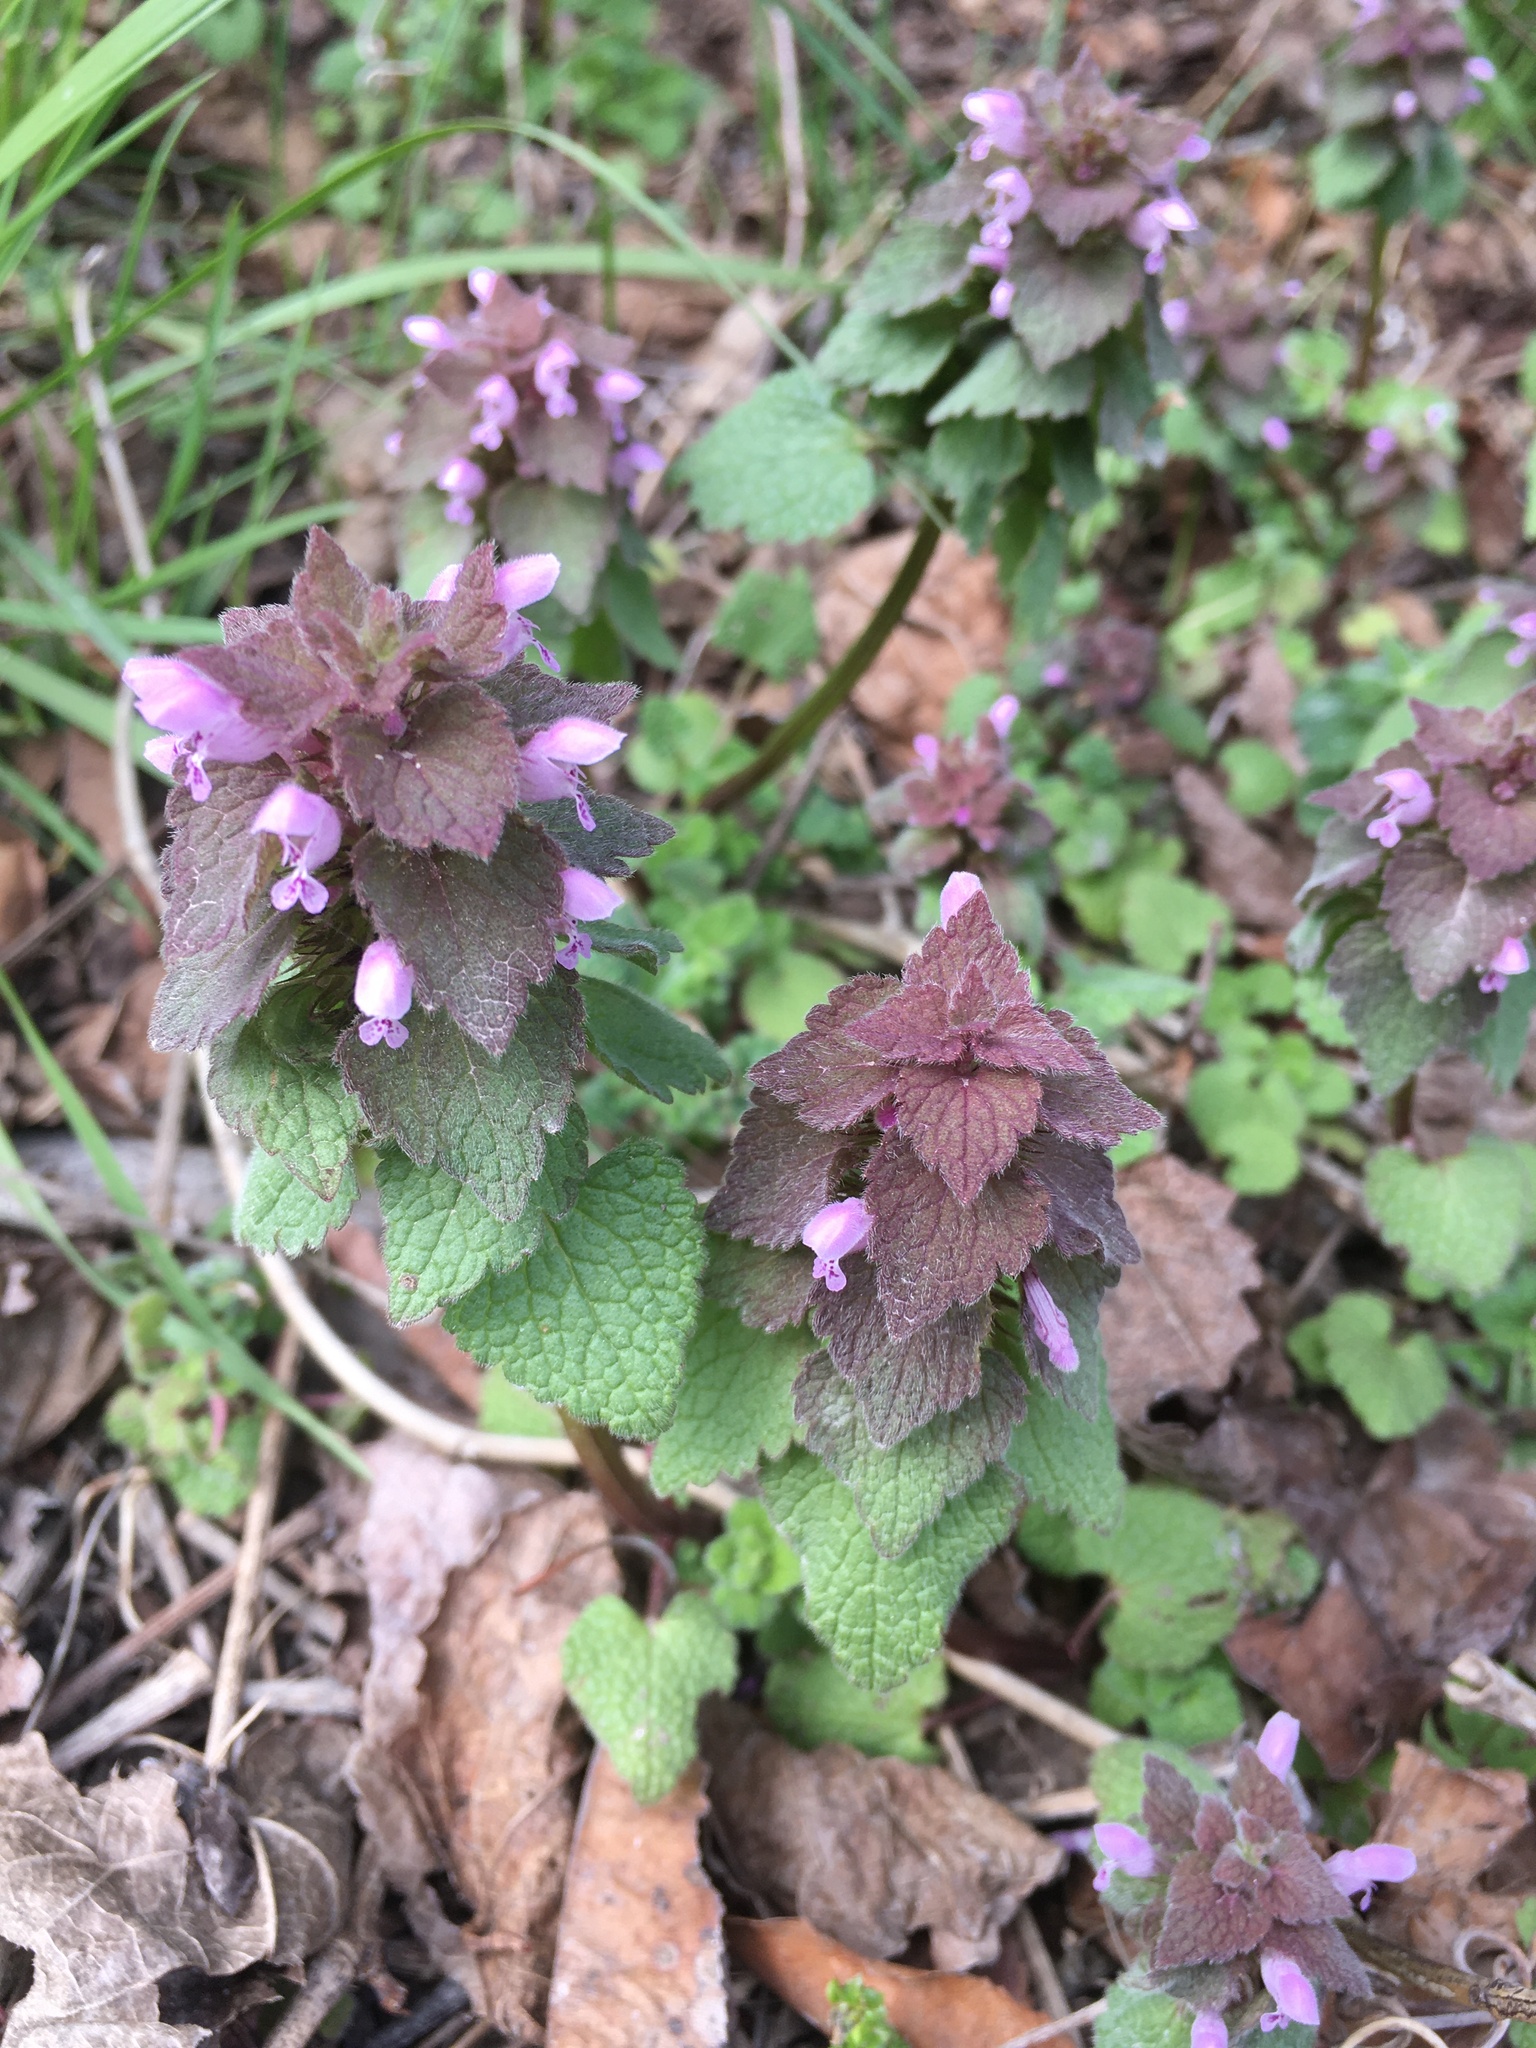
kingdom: Plantae
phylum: Tracheophyta
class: Magnoliopsida
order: Lamiales
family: Lamiaceae
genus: Lamium
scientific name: Lamium purpureum
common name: Red dead-nettle
